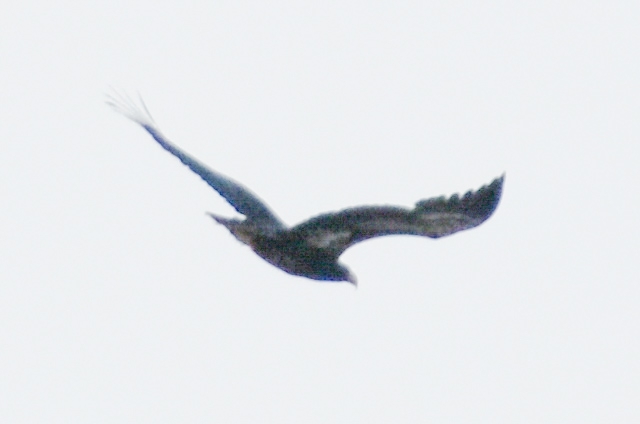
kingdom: Animalia
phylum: Chordata
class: Aves
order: Accipitriformes
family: Accipitridae
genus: Haliaeetus
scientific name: Haliaeetus pelagicus
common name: Steller's sea eagle
